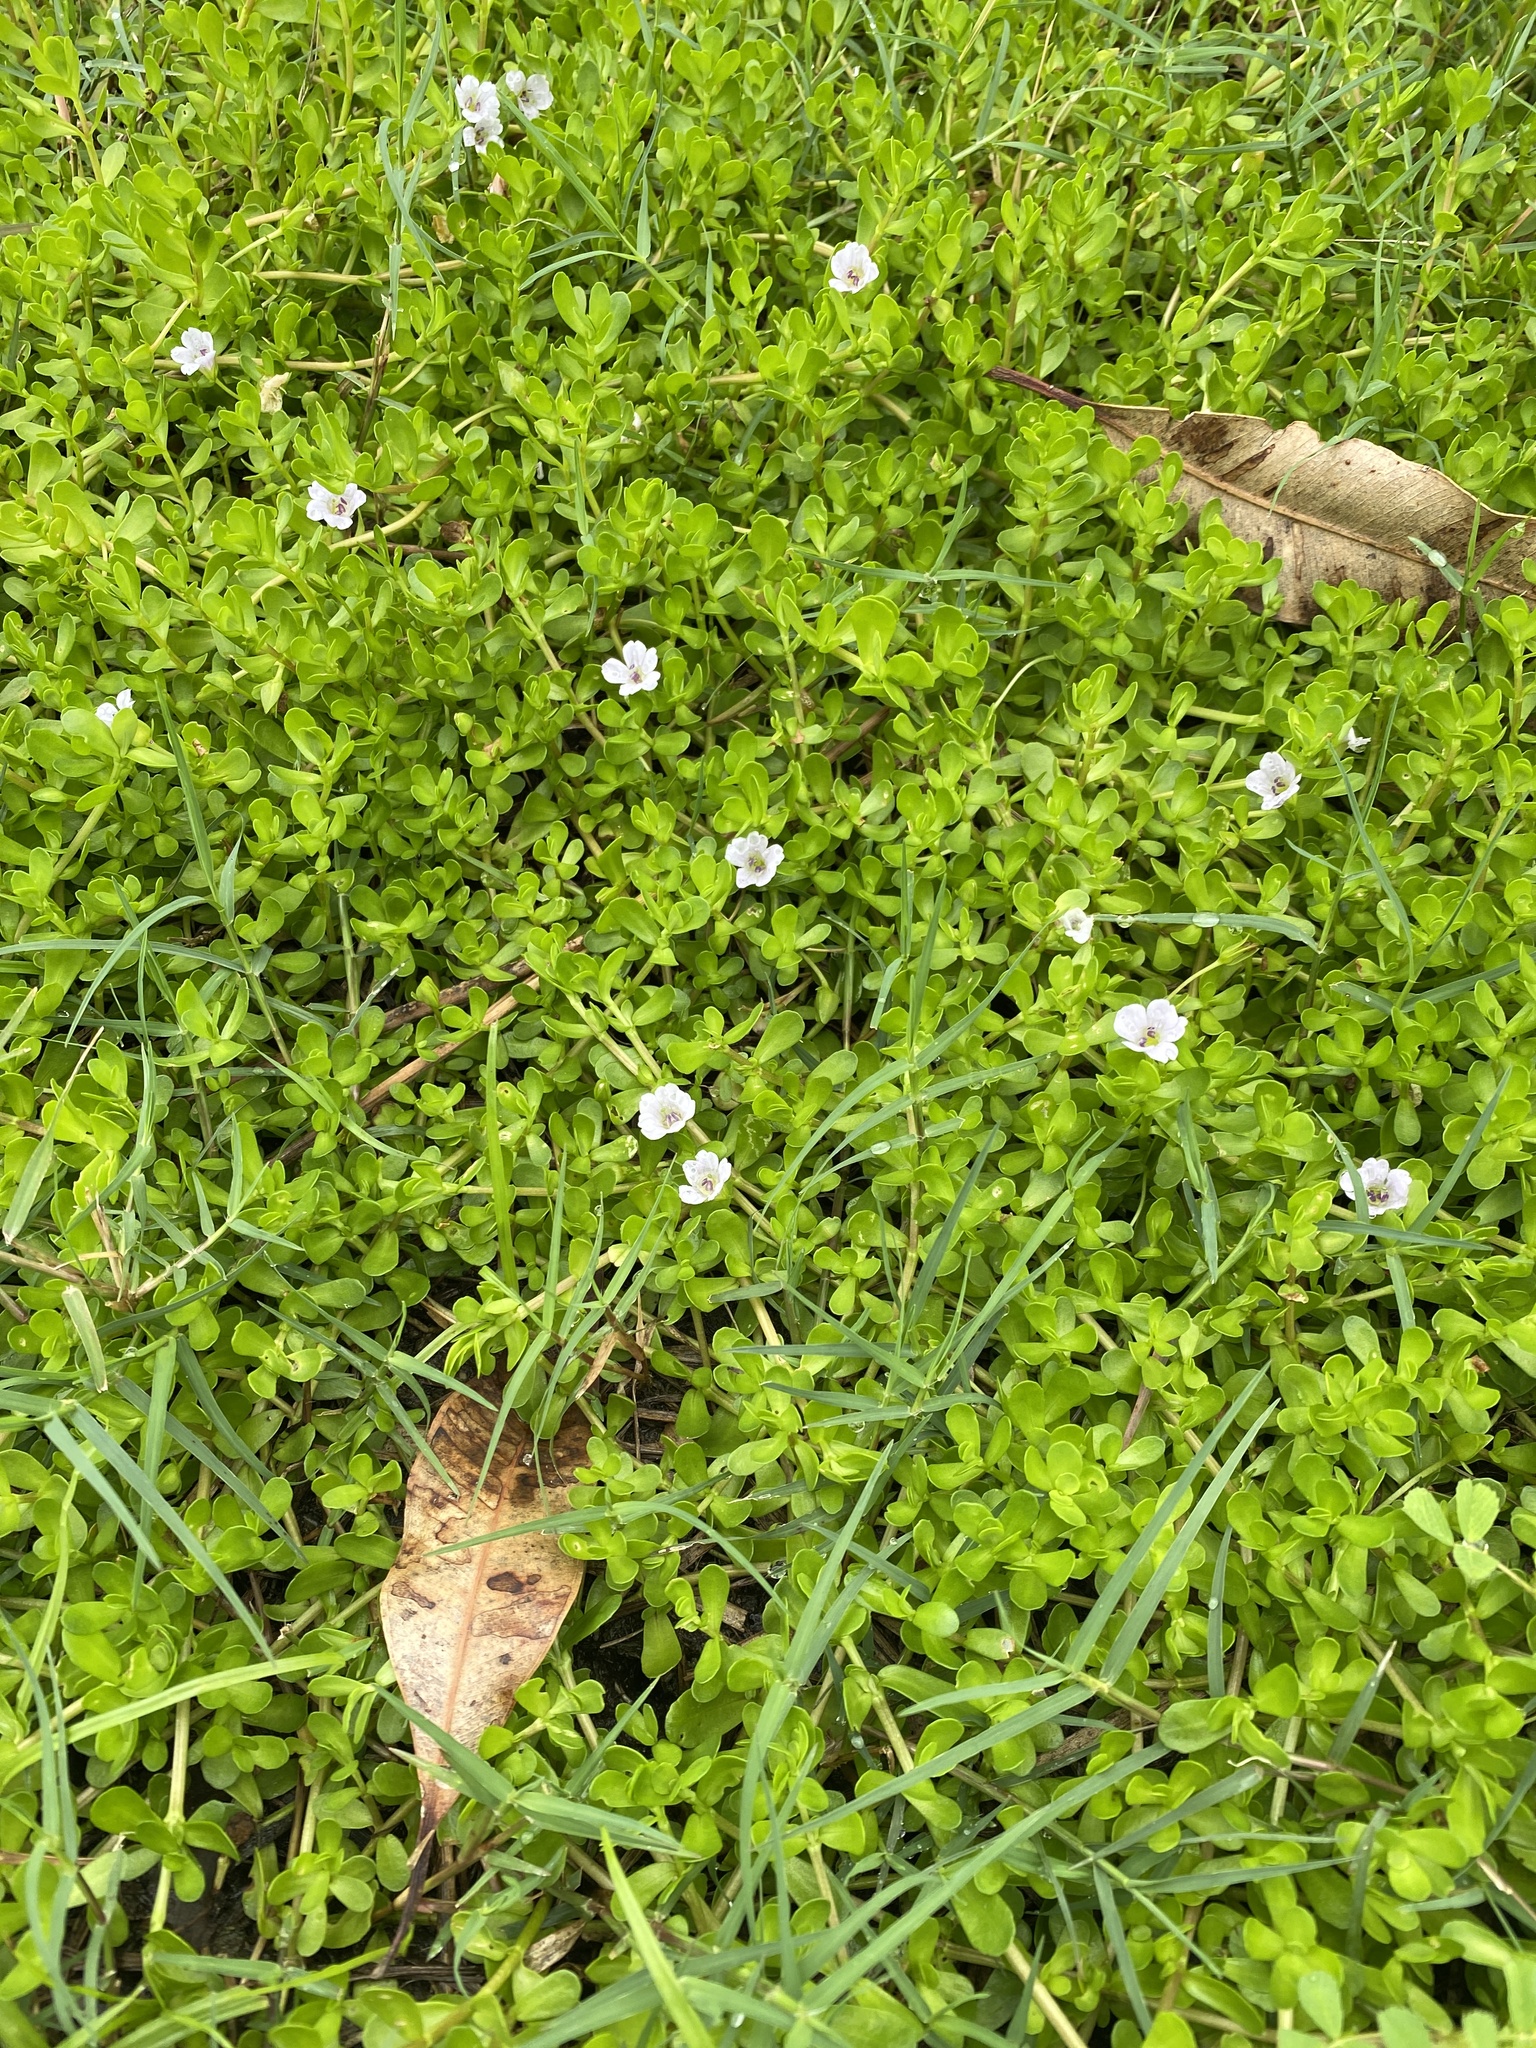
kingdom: Plantae
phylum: Tracheophyta
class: Magnoliopsida
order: Lamiales
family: Plantaginaceae
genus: Bacopa
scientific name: Bacopa monnieri
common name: Indian-pennywort
